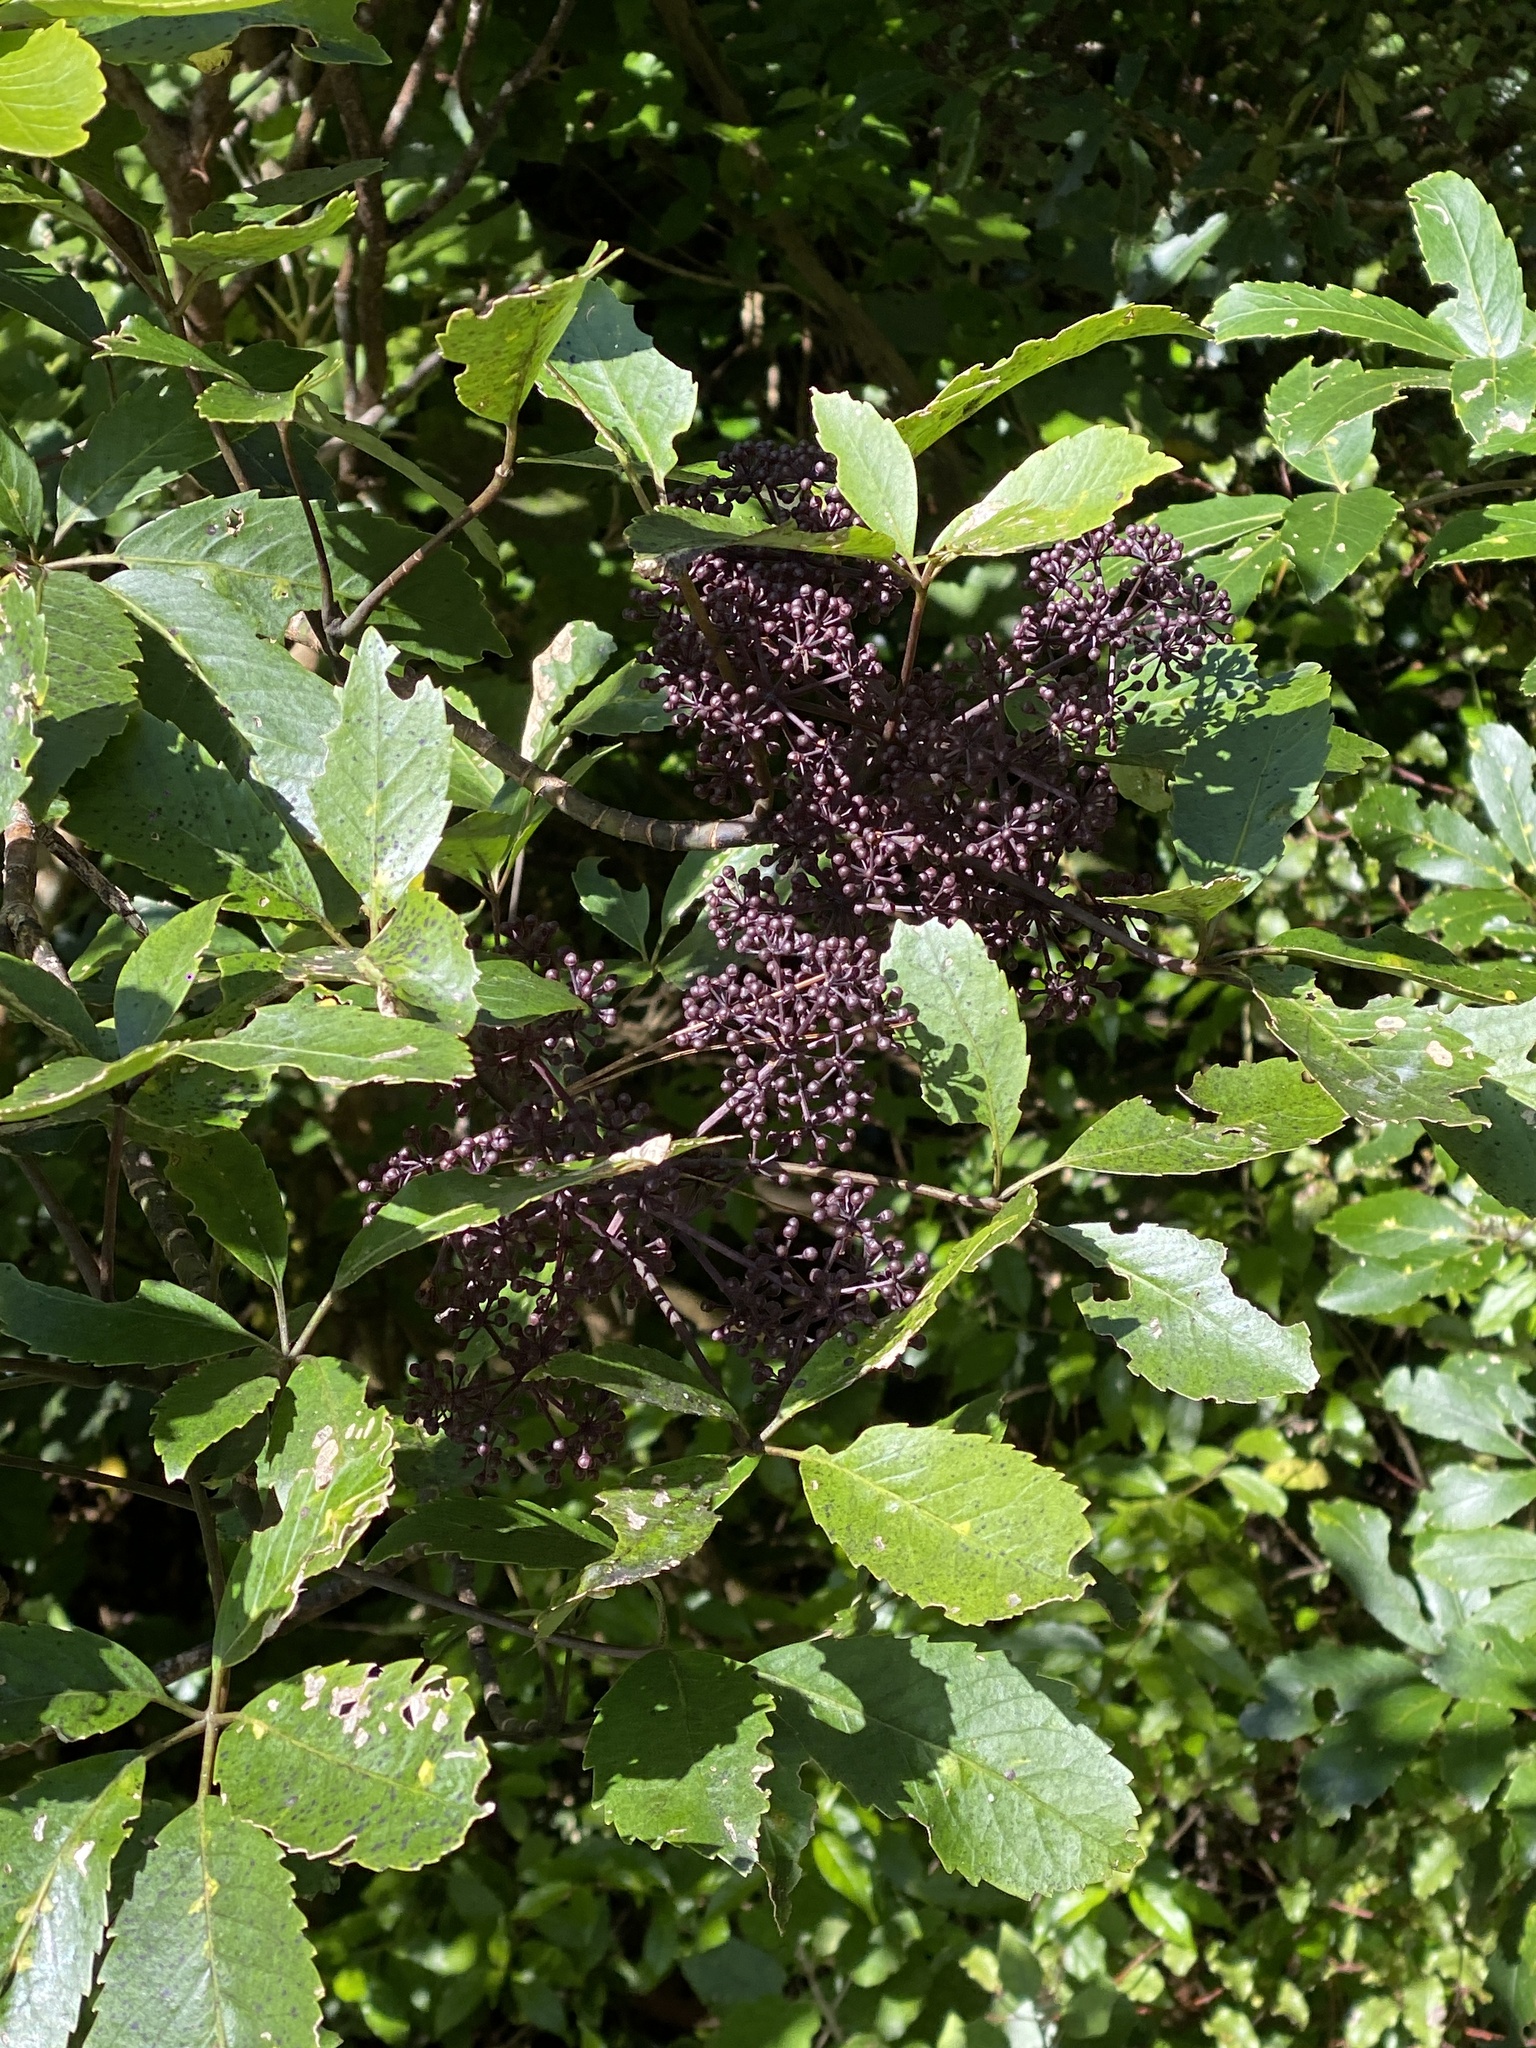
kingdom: Plantae
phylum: Tracheophyta
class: Magnoliopsida
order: Apiales
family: Araliaceae
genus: Neopanax
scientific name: Neopanax arboreus
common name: Five-fingers
